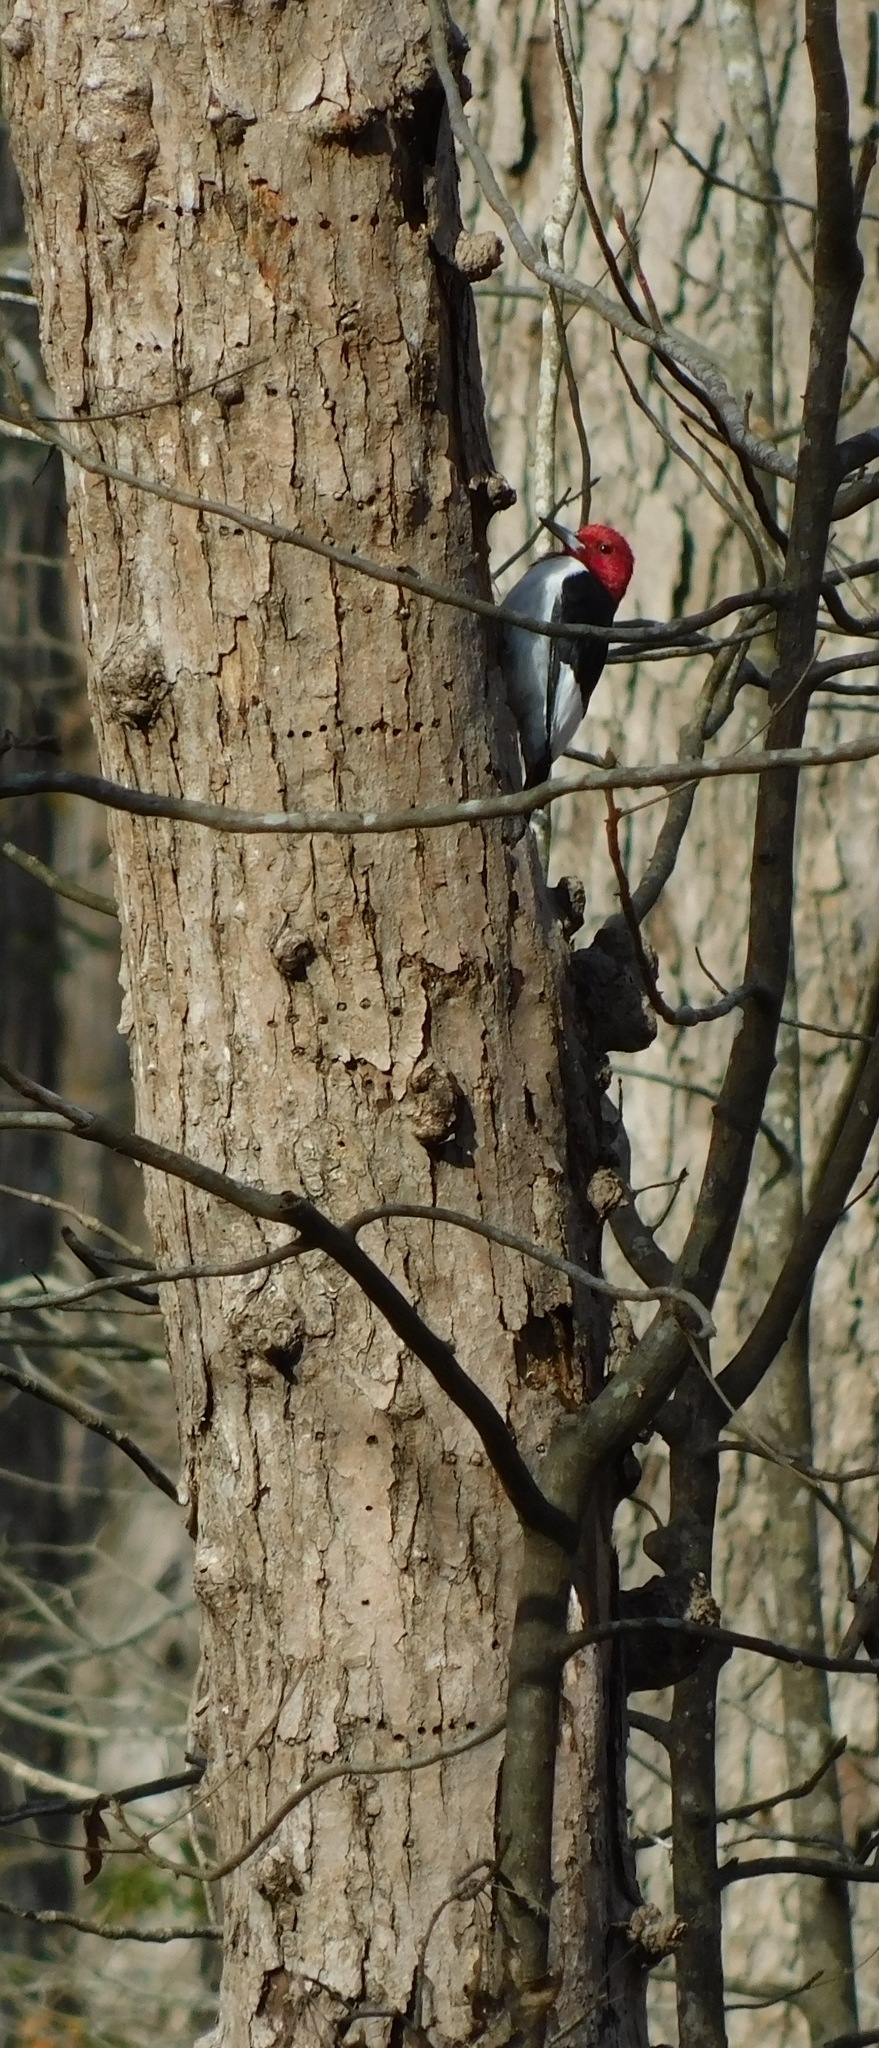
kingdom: Animalia
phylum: Chordata
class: Aves
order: Piciformes
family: Picidae
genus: Melanerpes
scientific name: Melanerpes erythrocephalus
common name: Red-headed woodpecker
